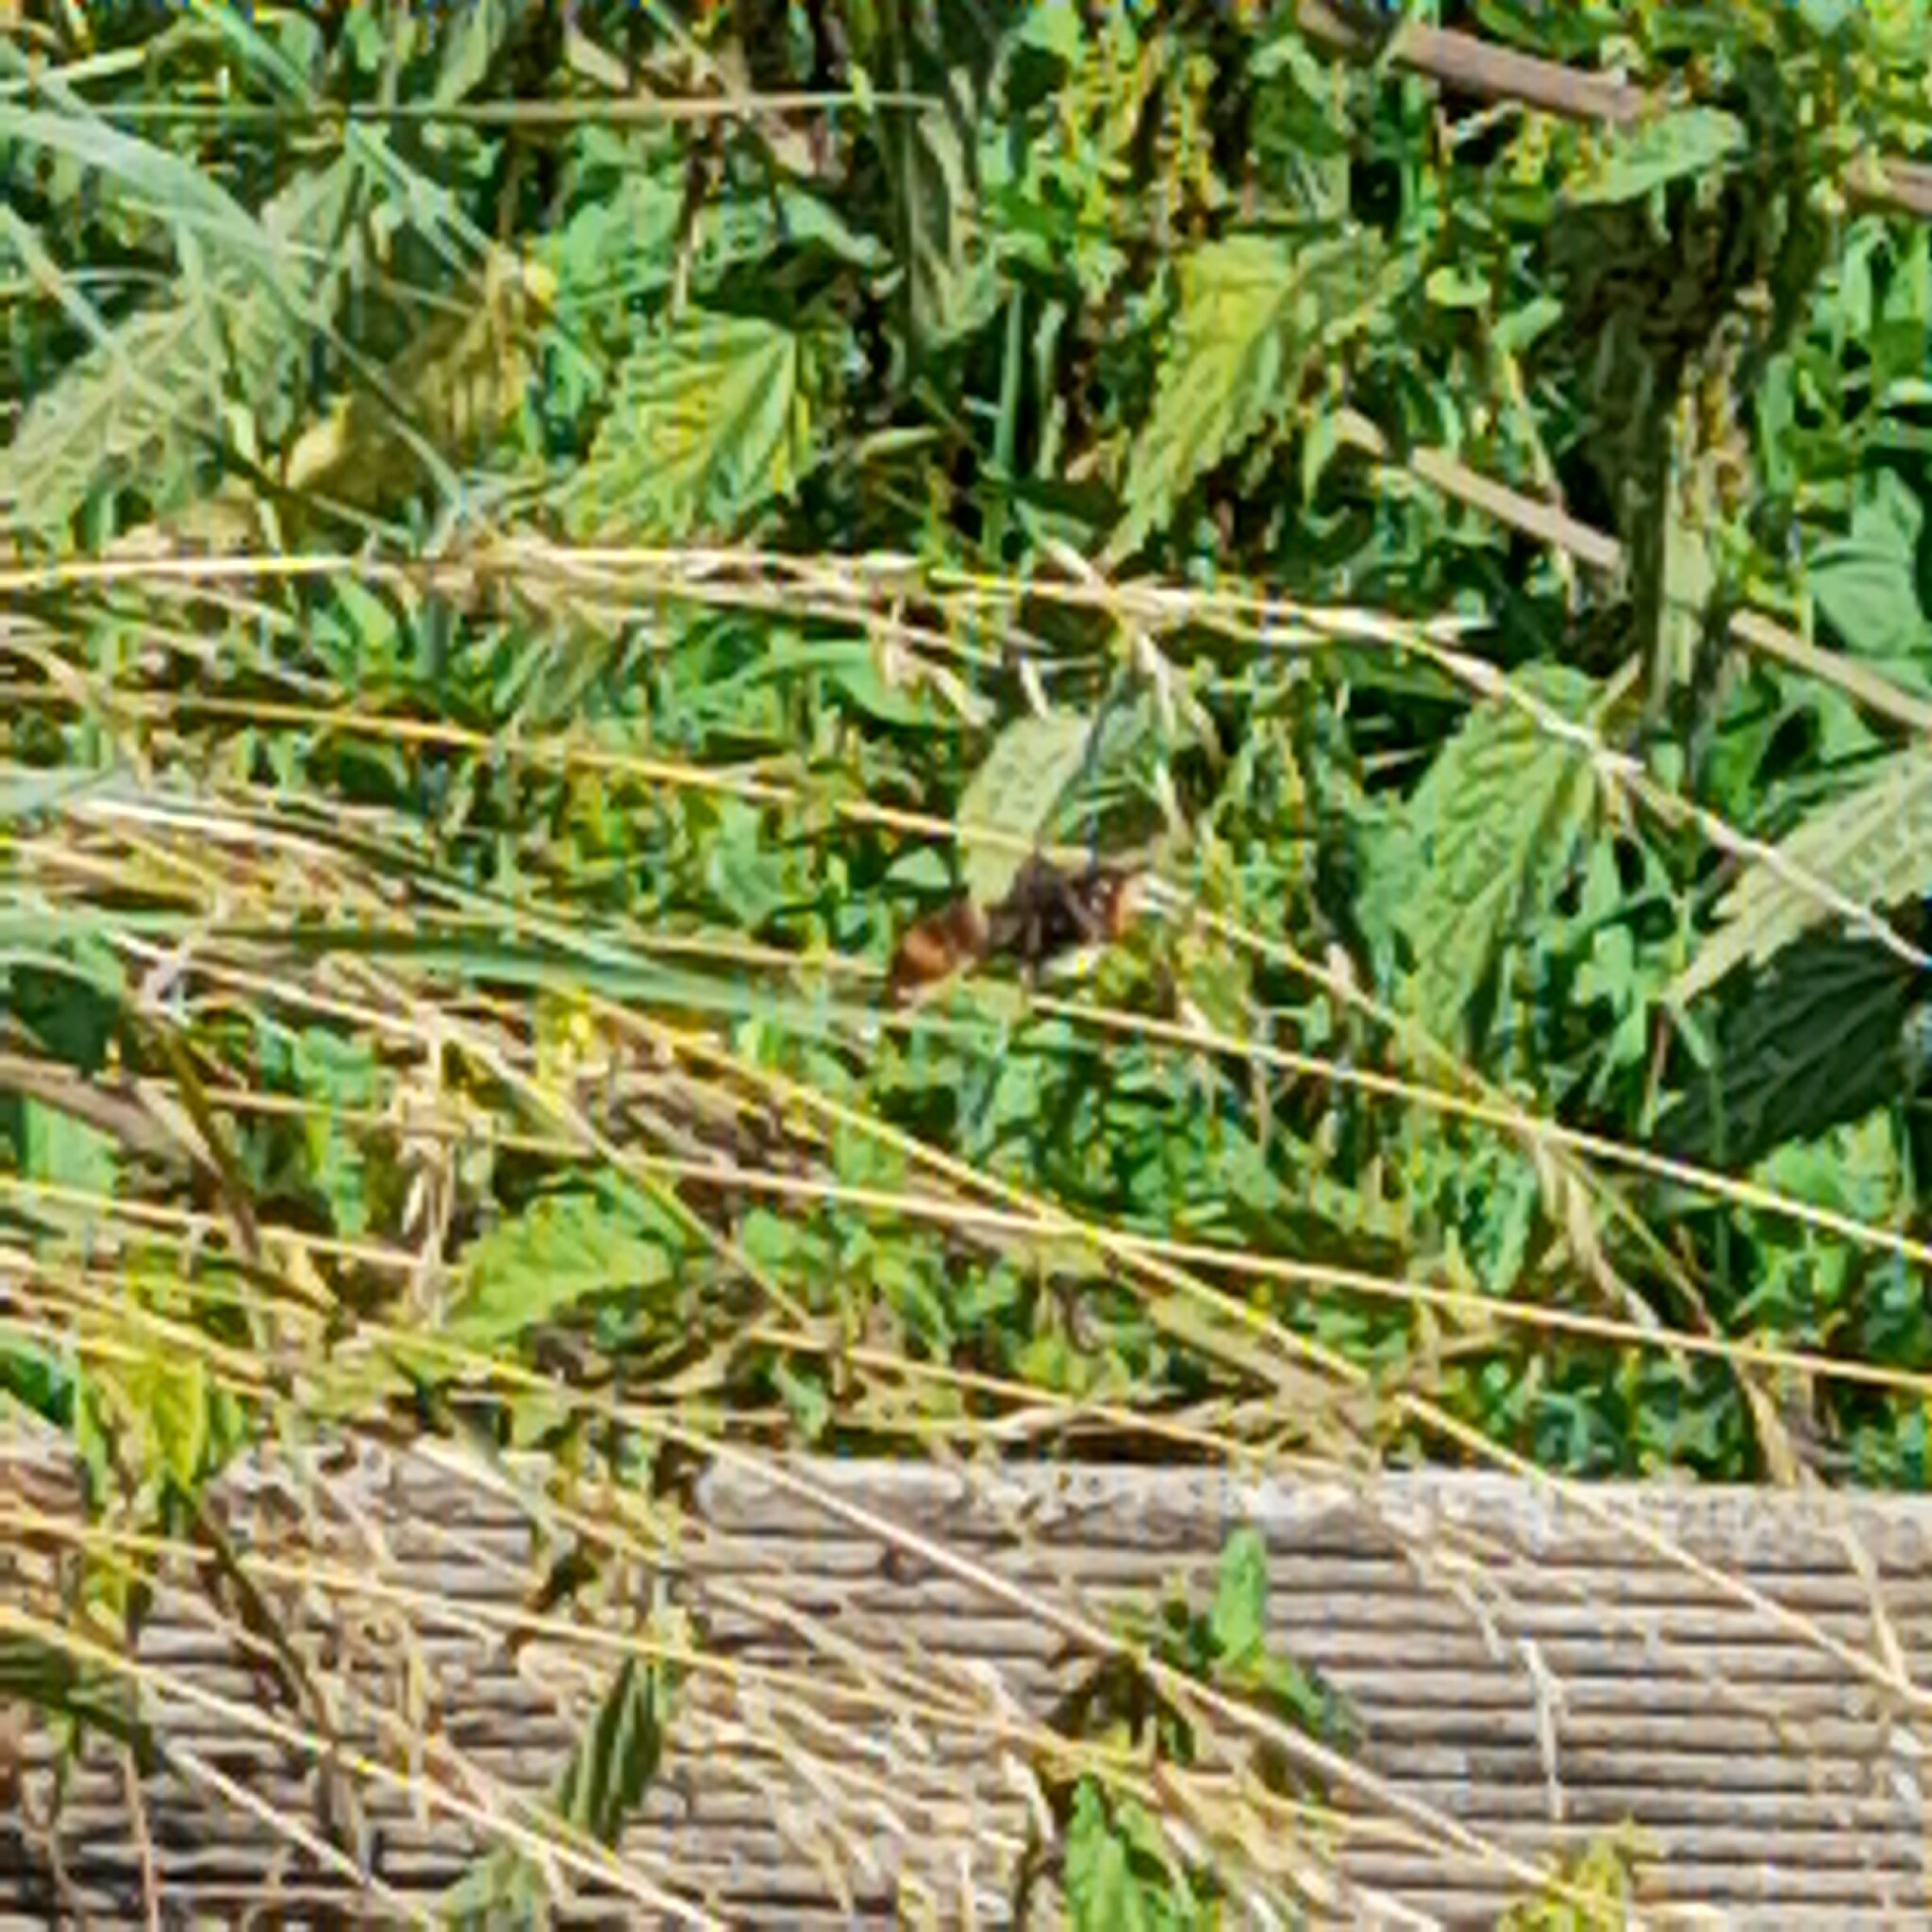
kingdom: Animalia
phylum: Arthropoda
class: Insecta
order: Hymenoptera
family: Vespidae
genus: Vespa
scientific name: Vespa velutina
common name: Asian hornet
